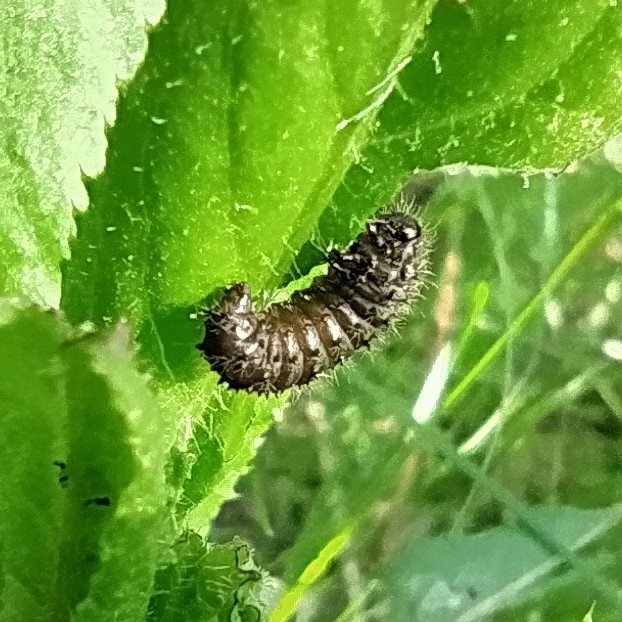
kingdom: Animalia
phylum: Arthropoda
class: Insecta
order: Coleoptera
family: Chrysomelidae
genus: Galeruca
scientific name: Galeruca tanaceti
